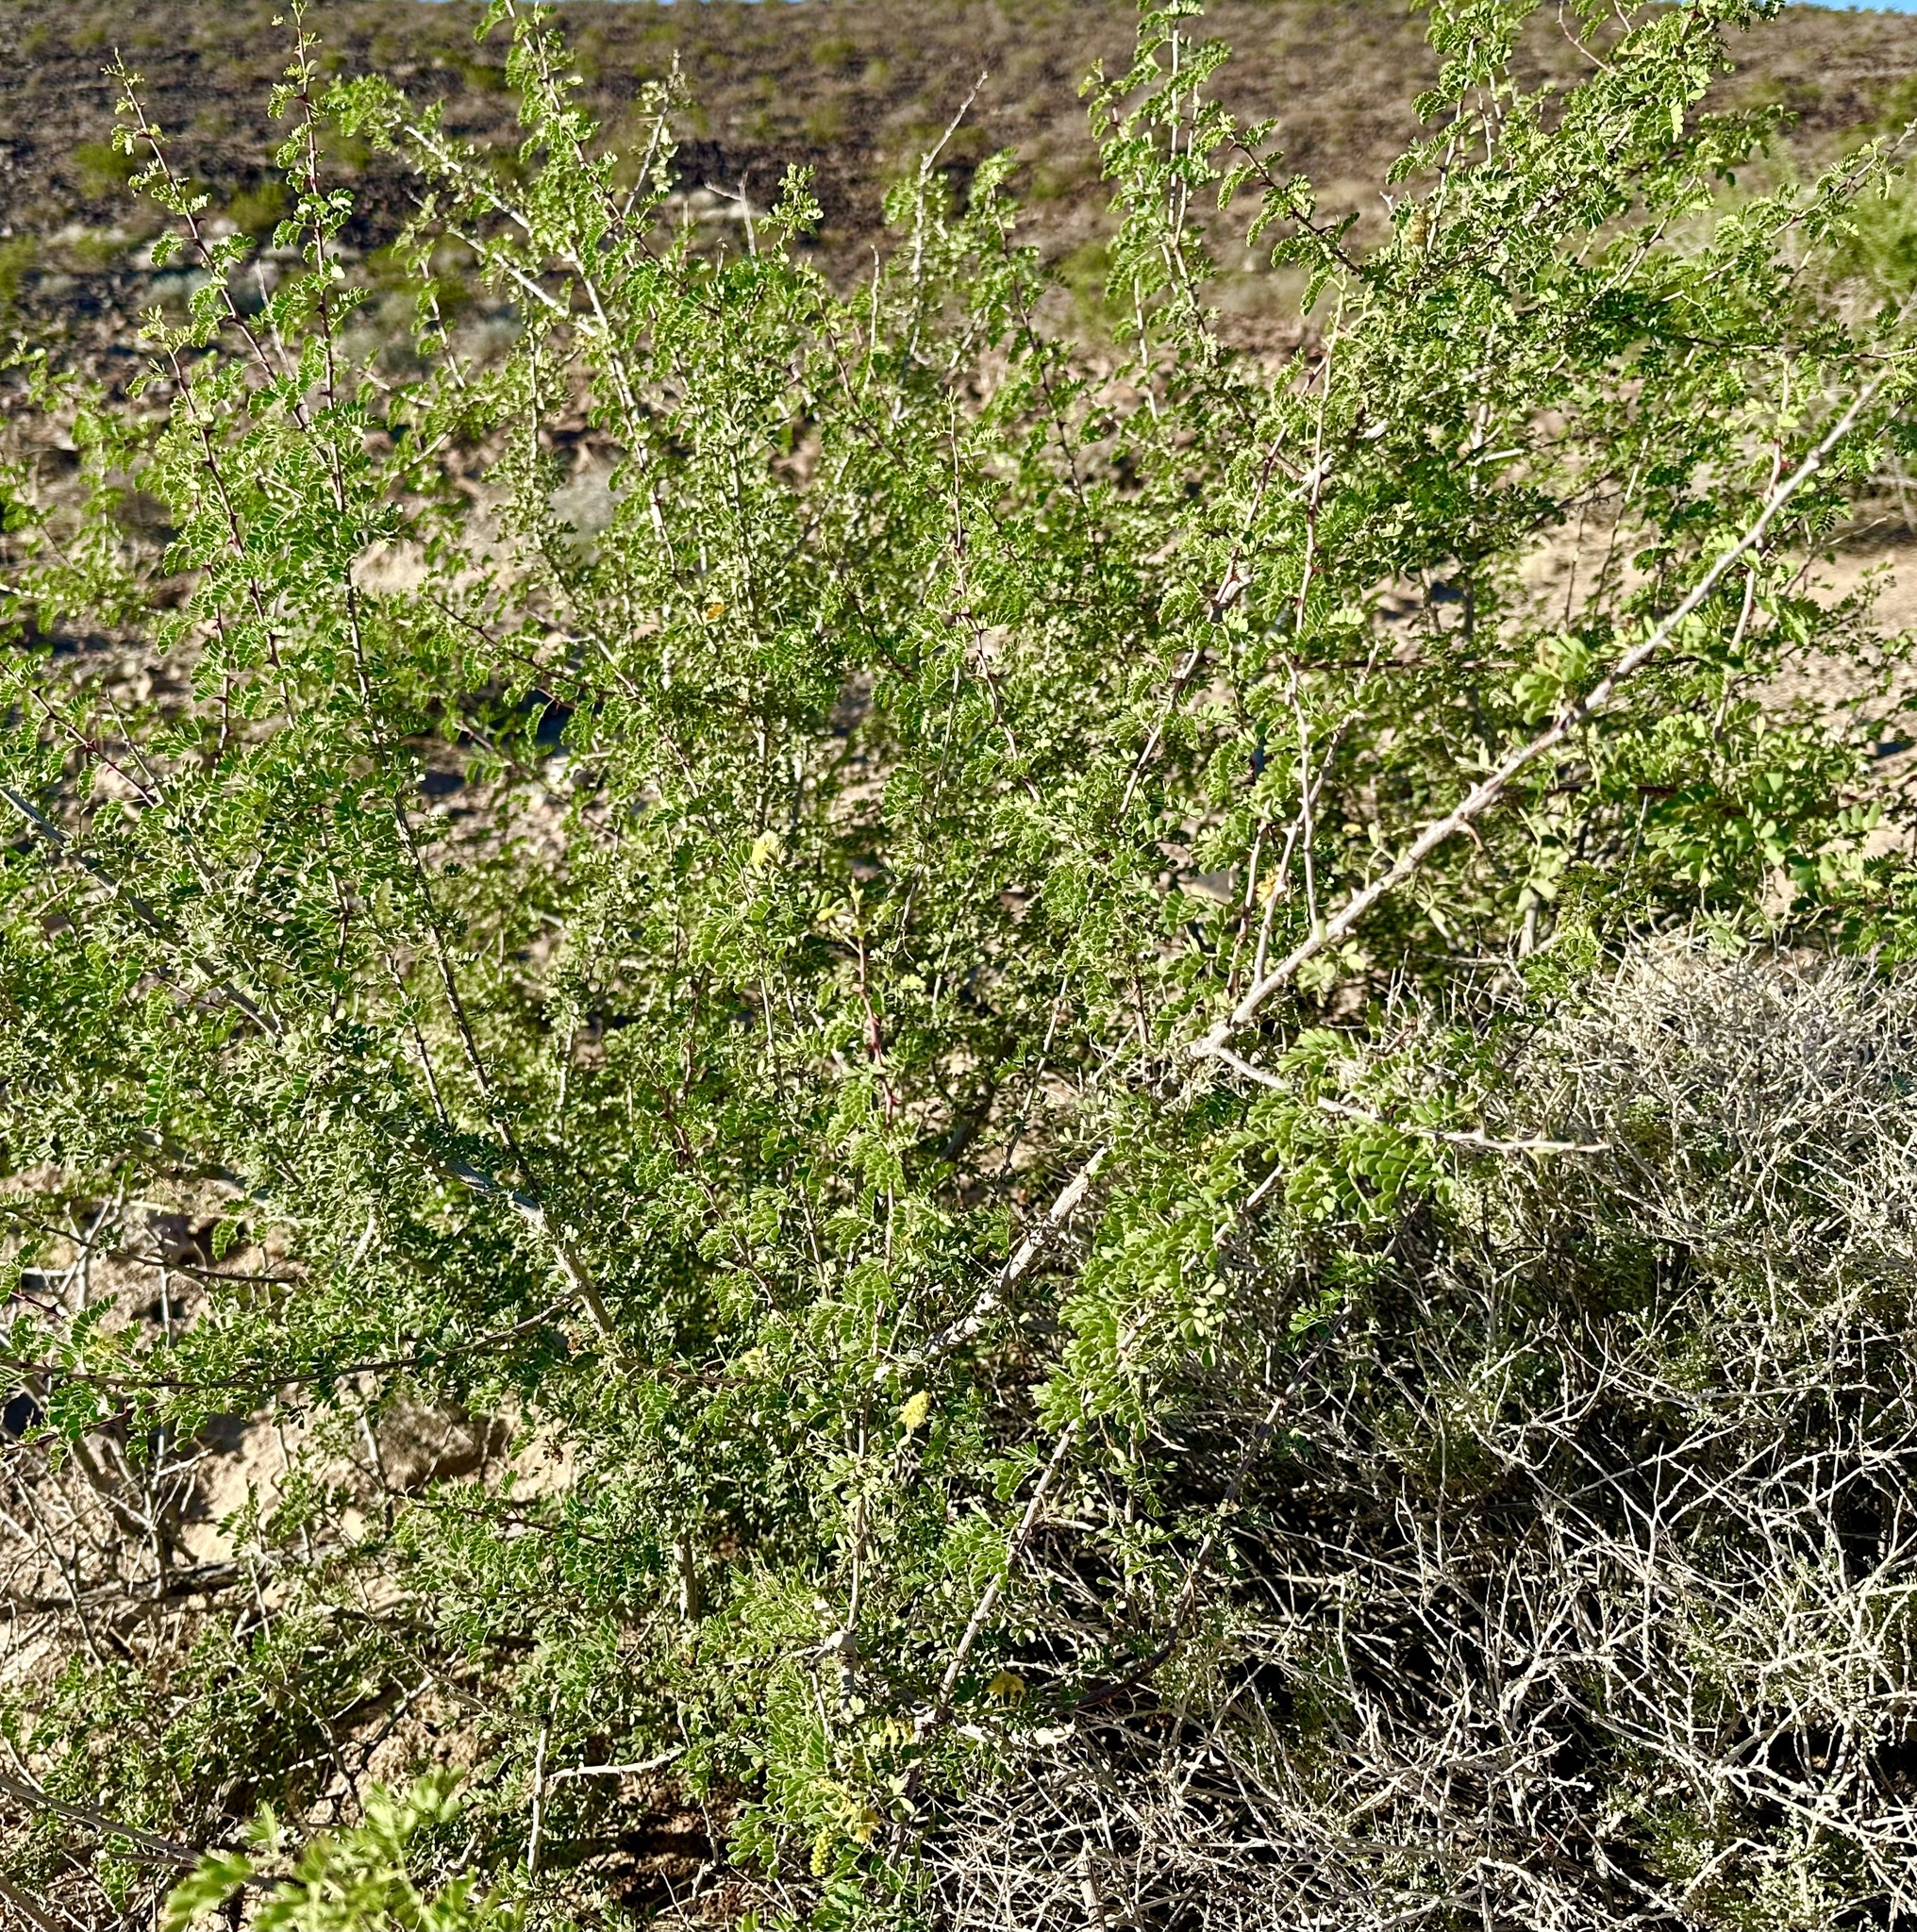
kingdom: Plantae
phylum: Tracheophyta
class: Magnoliopsida
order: Fabales
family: Fabaceae
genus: Senegalia
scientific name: Senegalia greggii
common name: Texas-mimosa
